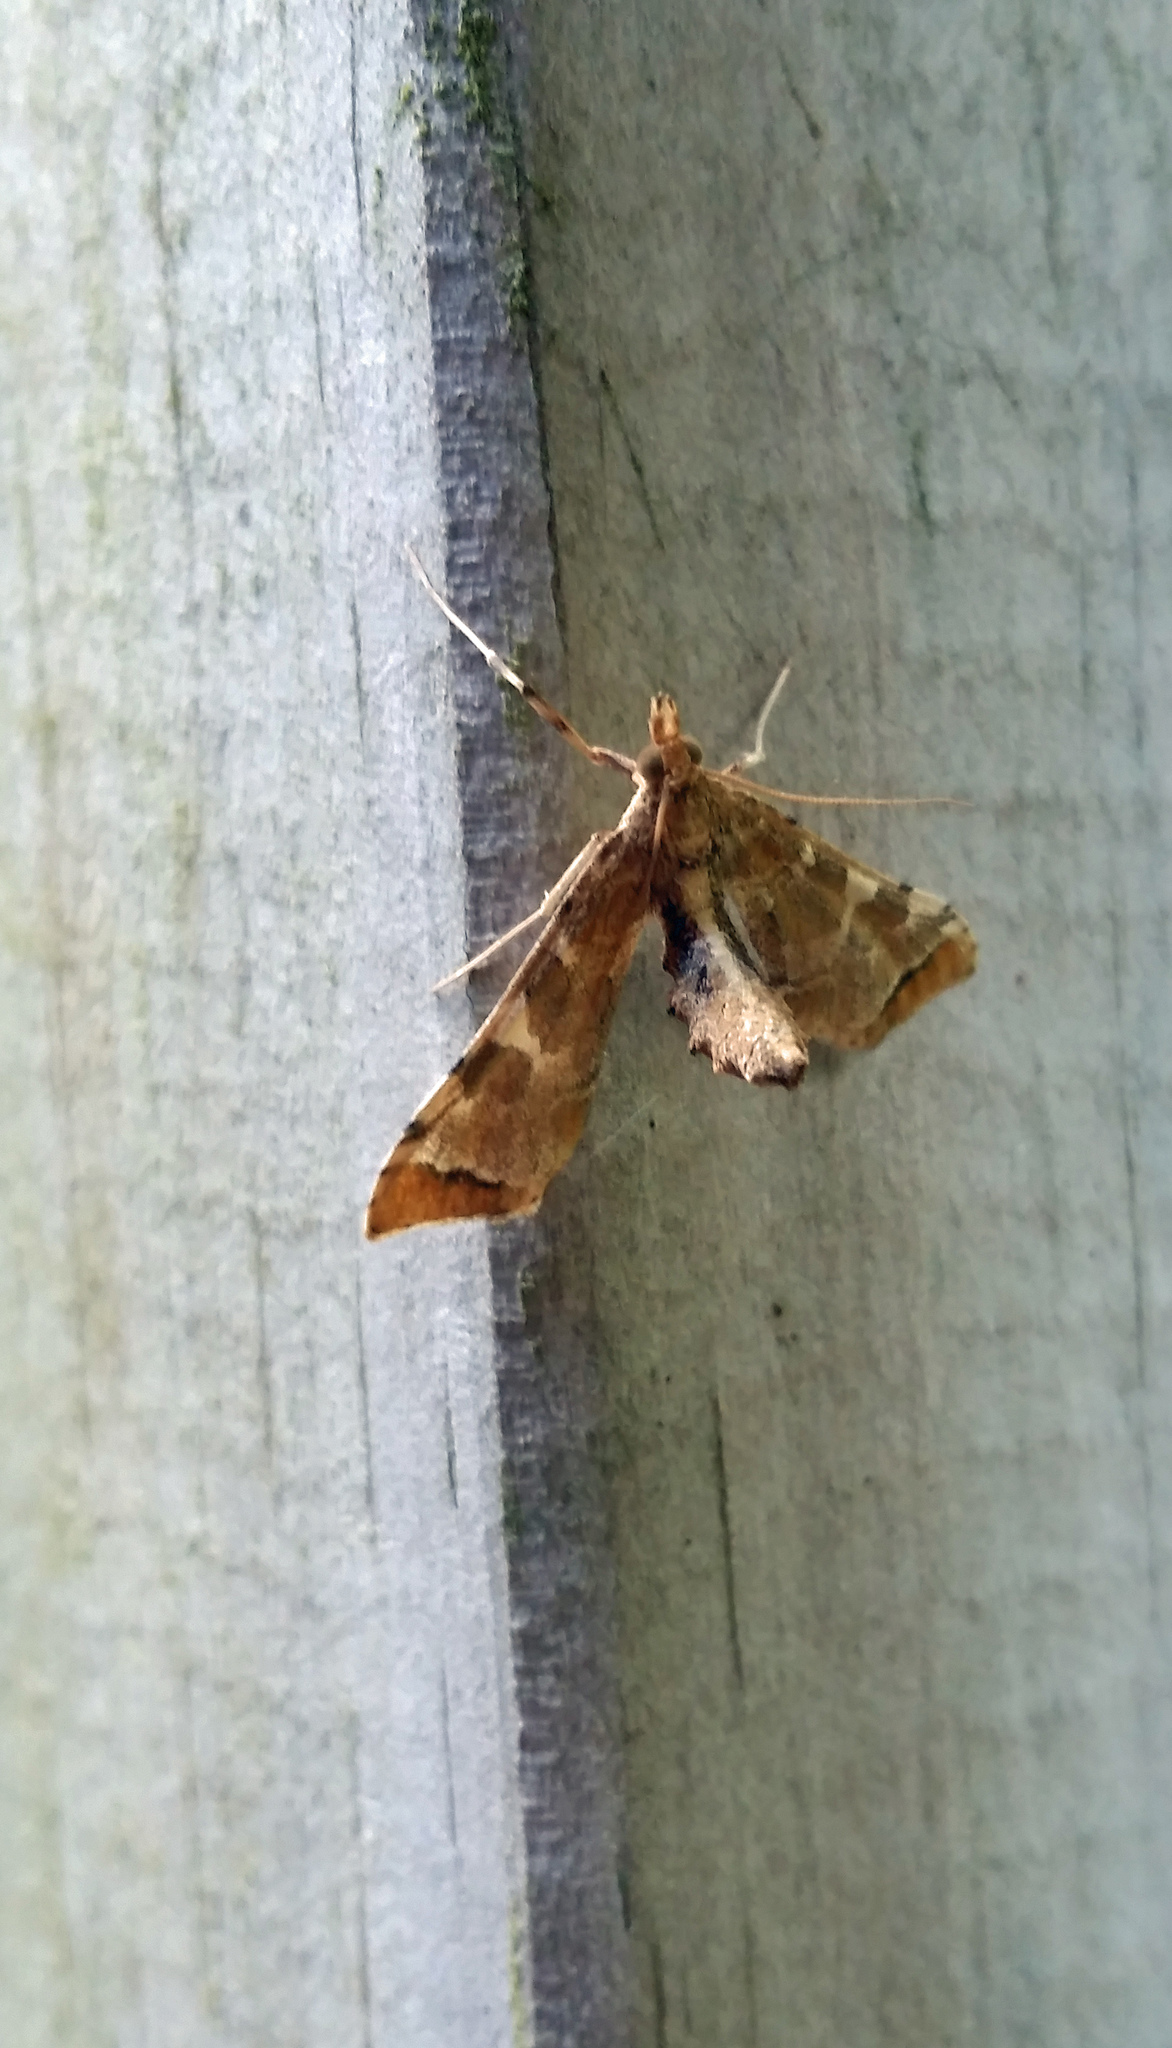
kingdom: Animalia
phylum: Arthropoda
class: Insecta
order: Lepidoptera
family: Crambidae
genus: Sceliodes
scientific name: Sceliodes cordalis
